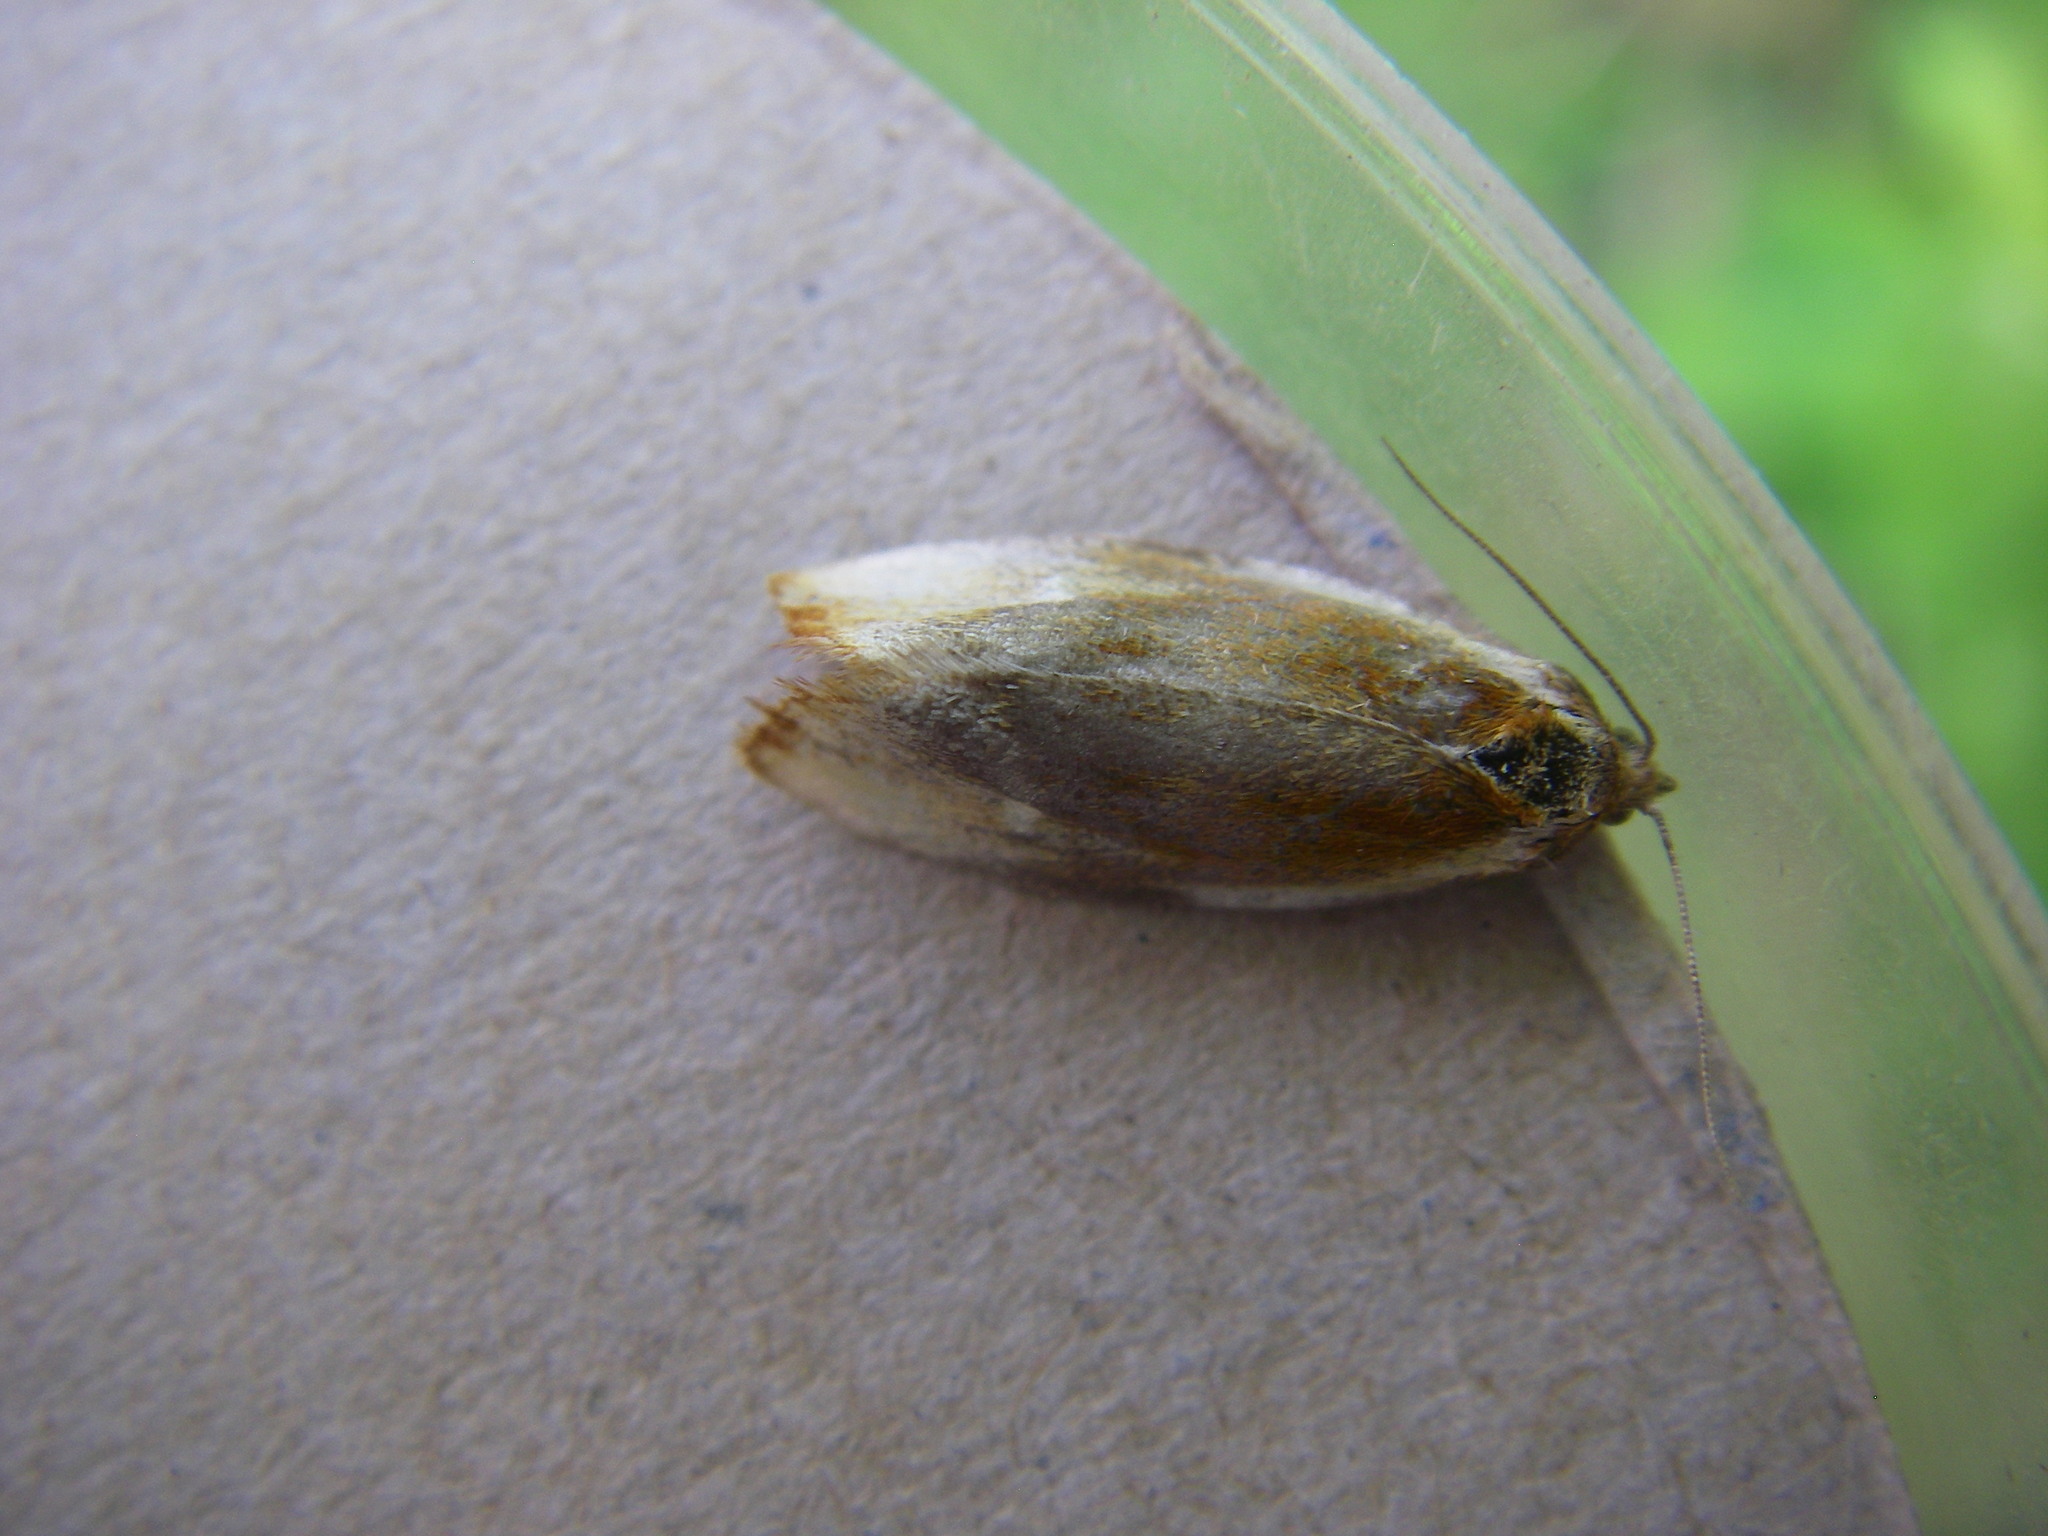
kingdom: Animalia
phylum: Arthropoda
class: Insecta
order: Lepidoptera
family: Tortricidae
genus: Eulia
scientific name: Eulia ministrana
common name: Brassy twist
